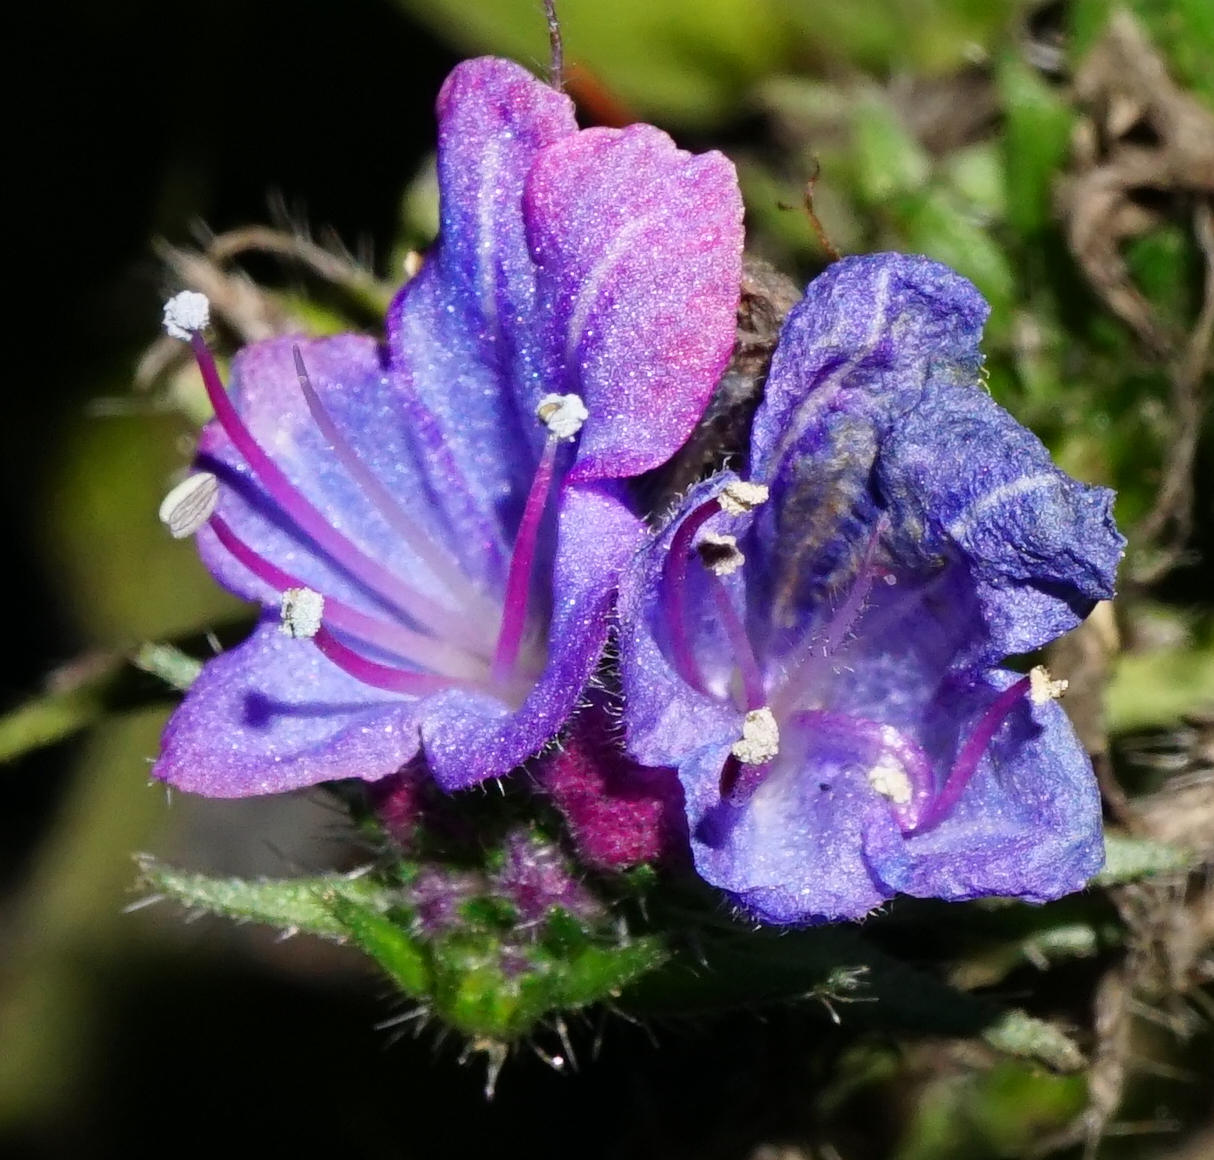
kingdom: Plantae
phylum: Tracheophyta
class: Magnoliopsida
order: Boraginales
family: Boraginaceae
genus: Echium
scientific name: Echium vulgare
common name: Common viper's bugloss
